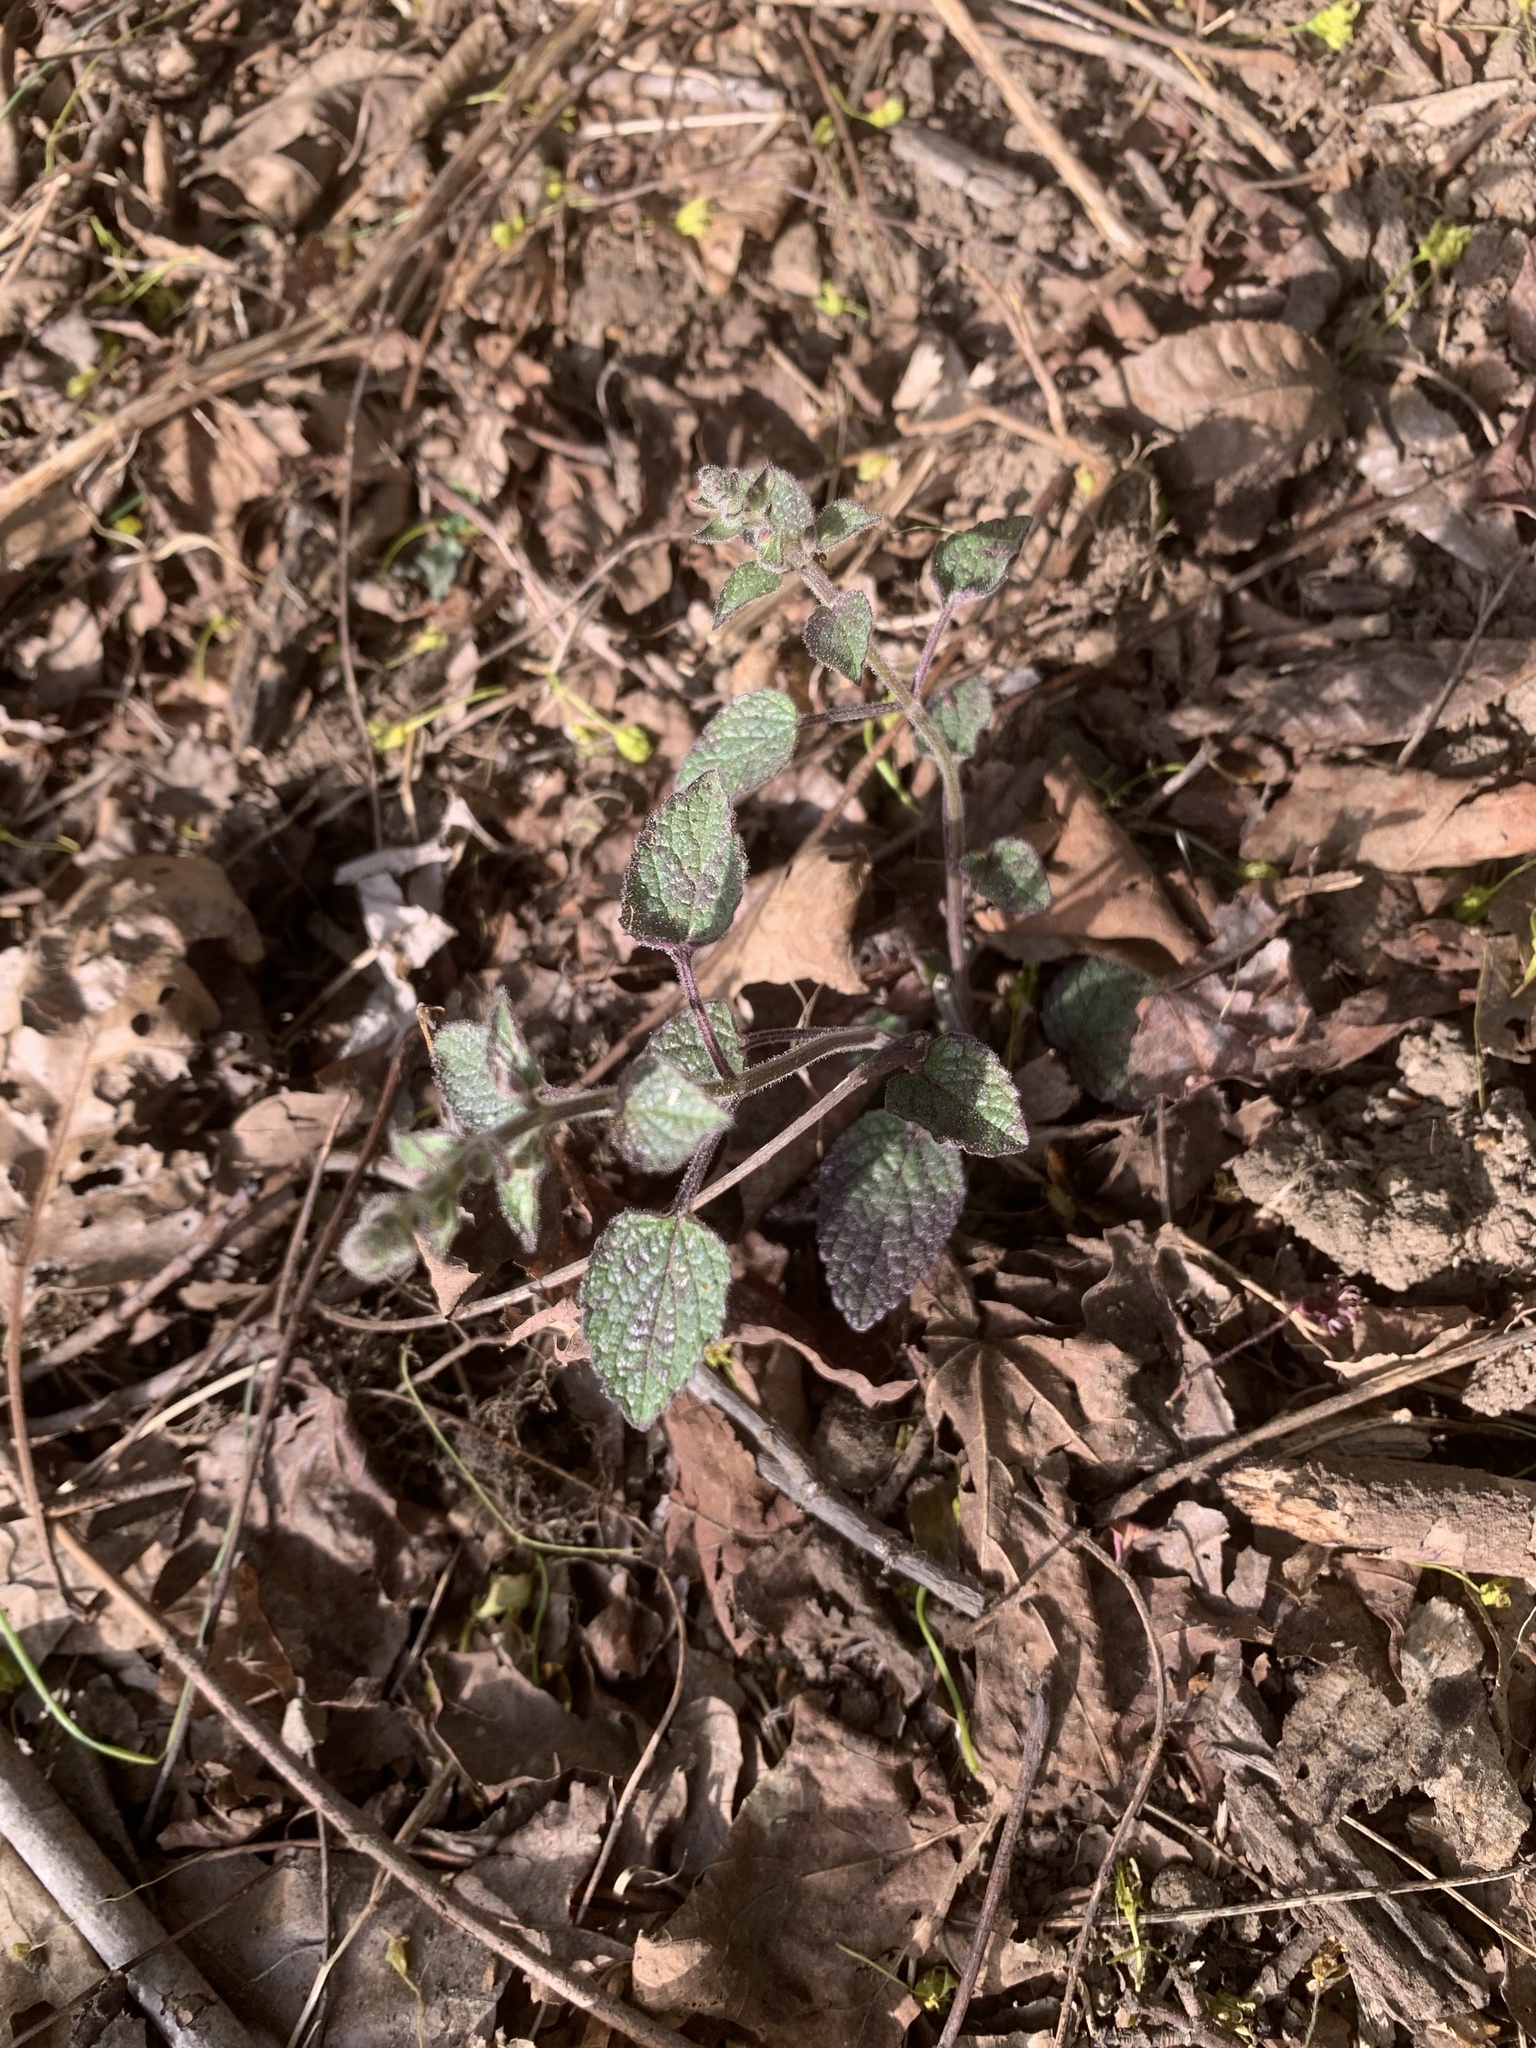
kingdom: Plantae
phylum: Tracheophyta
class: Magnoliopsida
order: Lamiales
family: Lamiaceae
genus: Scutellaria
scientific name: Scutellaria ovata
